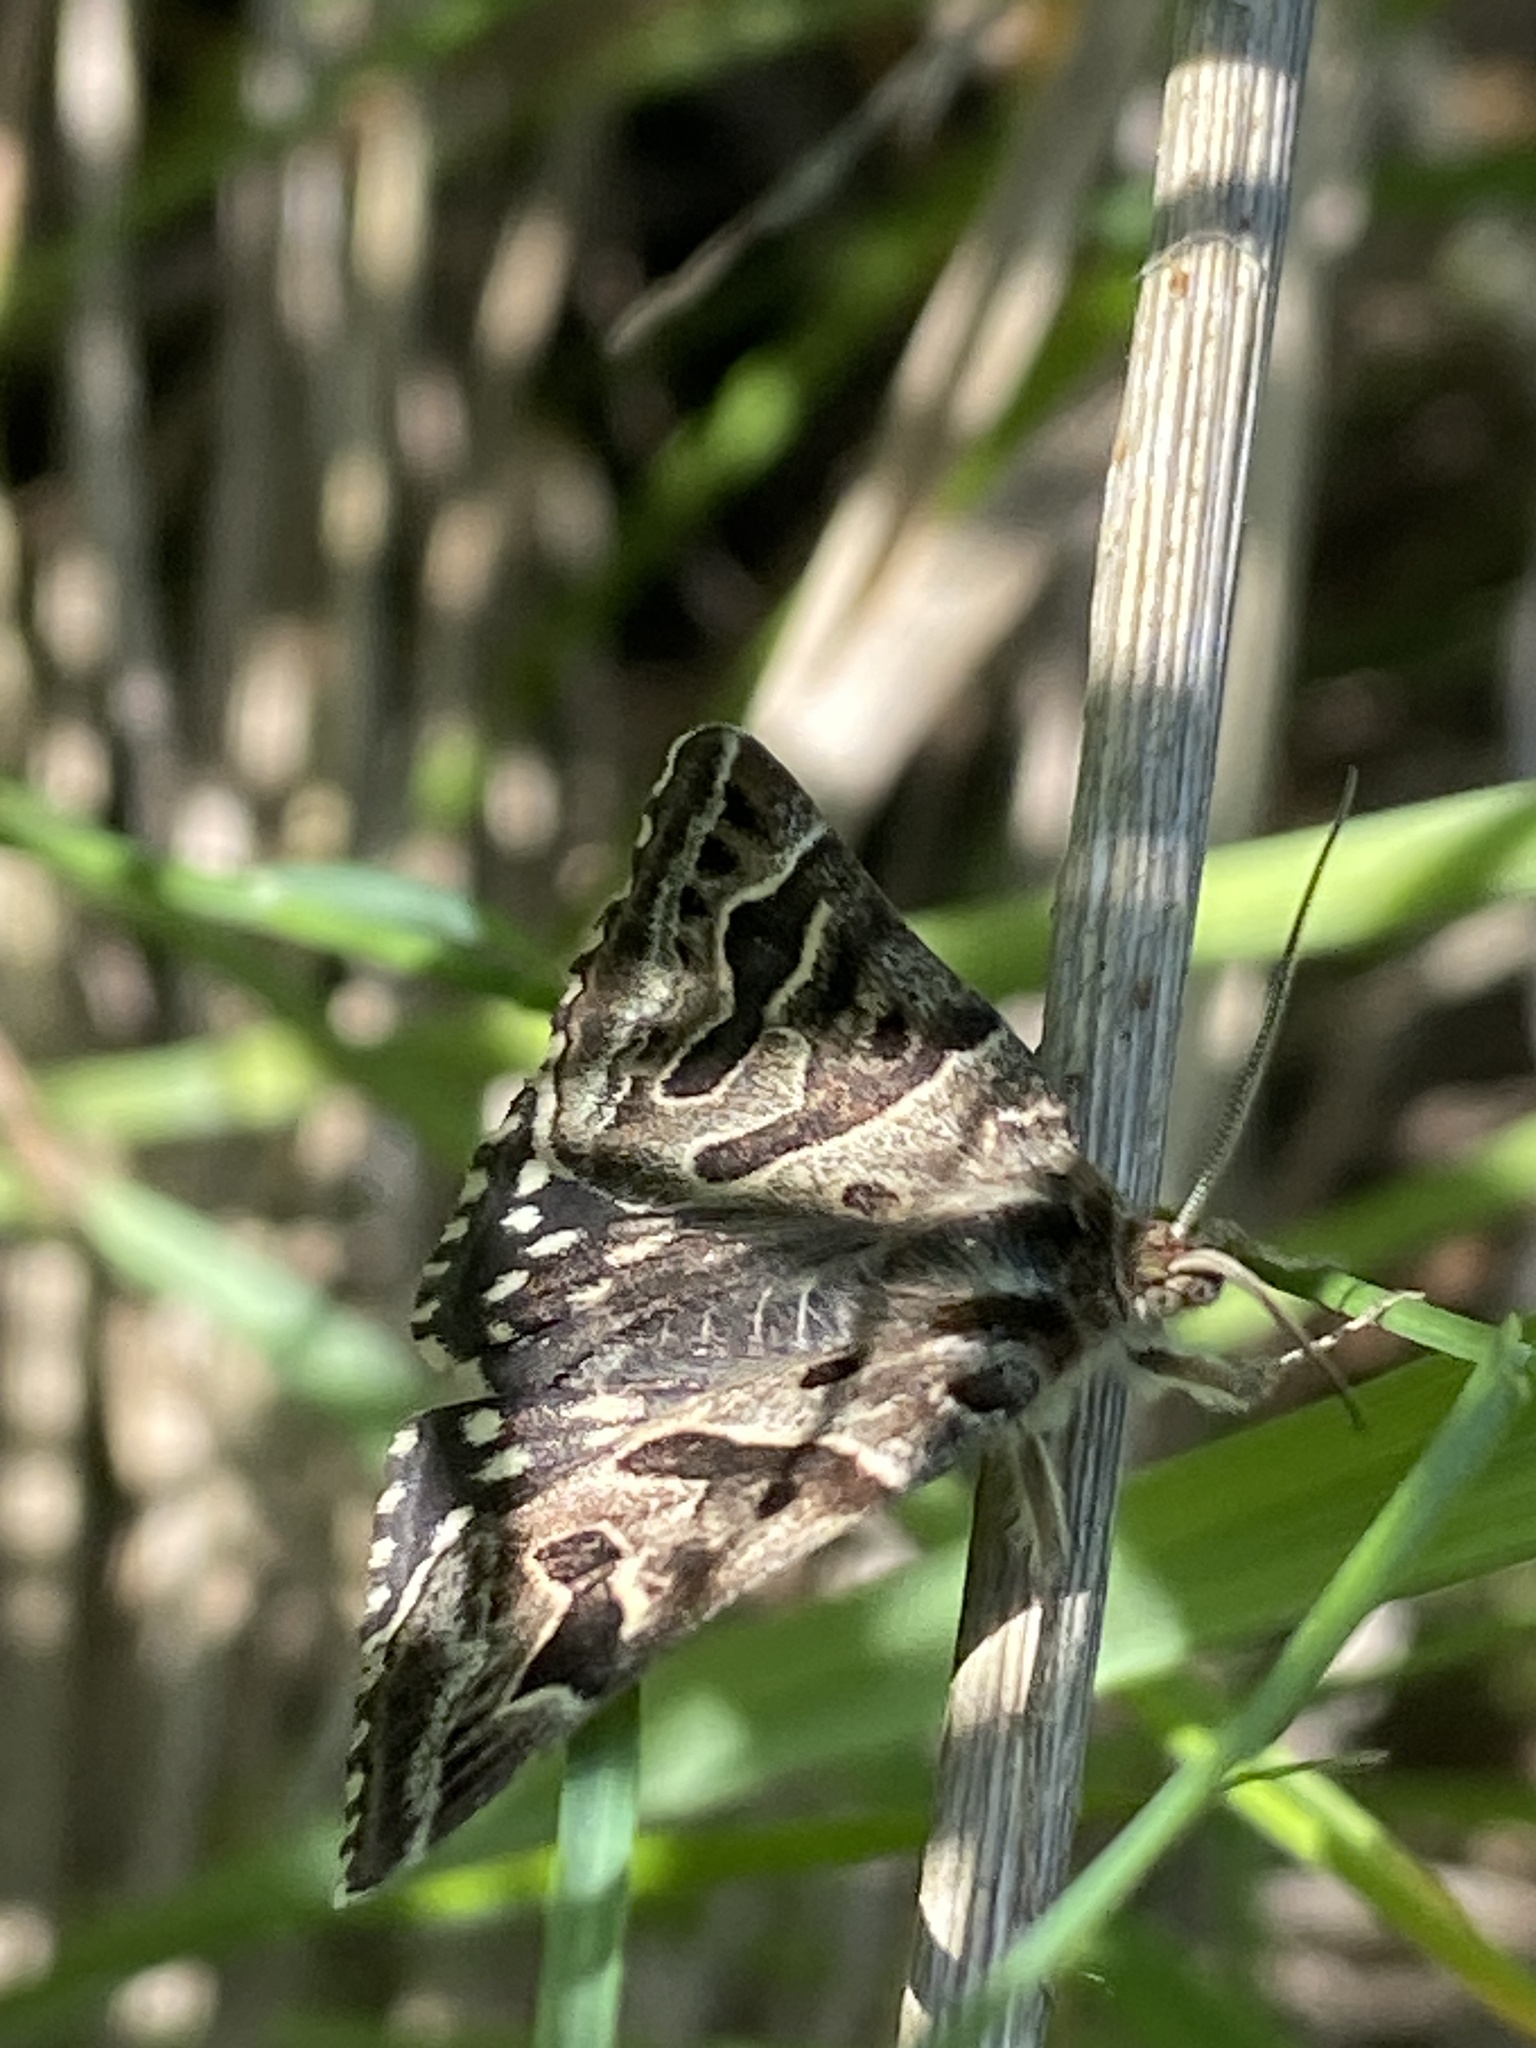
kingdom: Animalia
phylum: Arthropoda
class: Insecta
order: Lepidoptera
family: Erebidae
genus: Callistege
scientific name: Callistege mi
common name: Mother shipton
